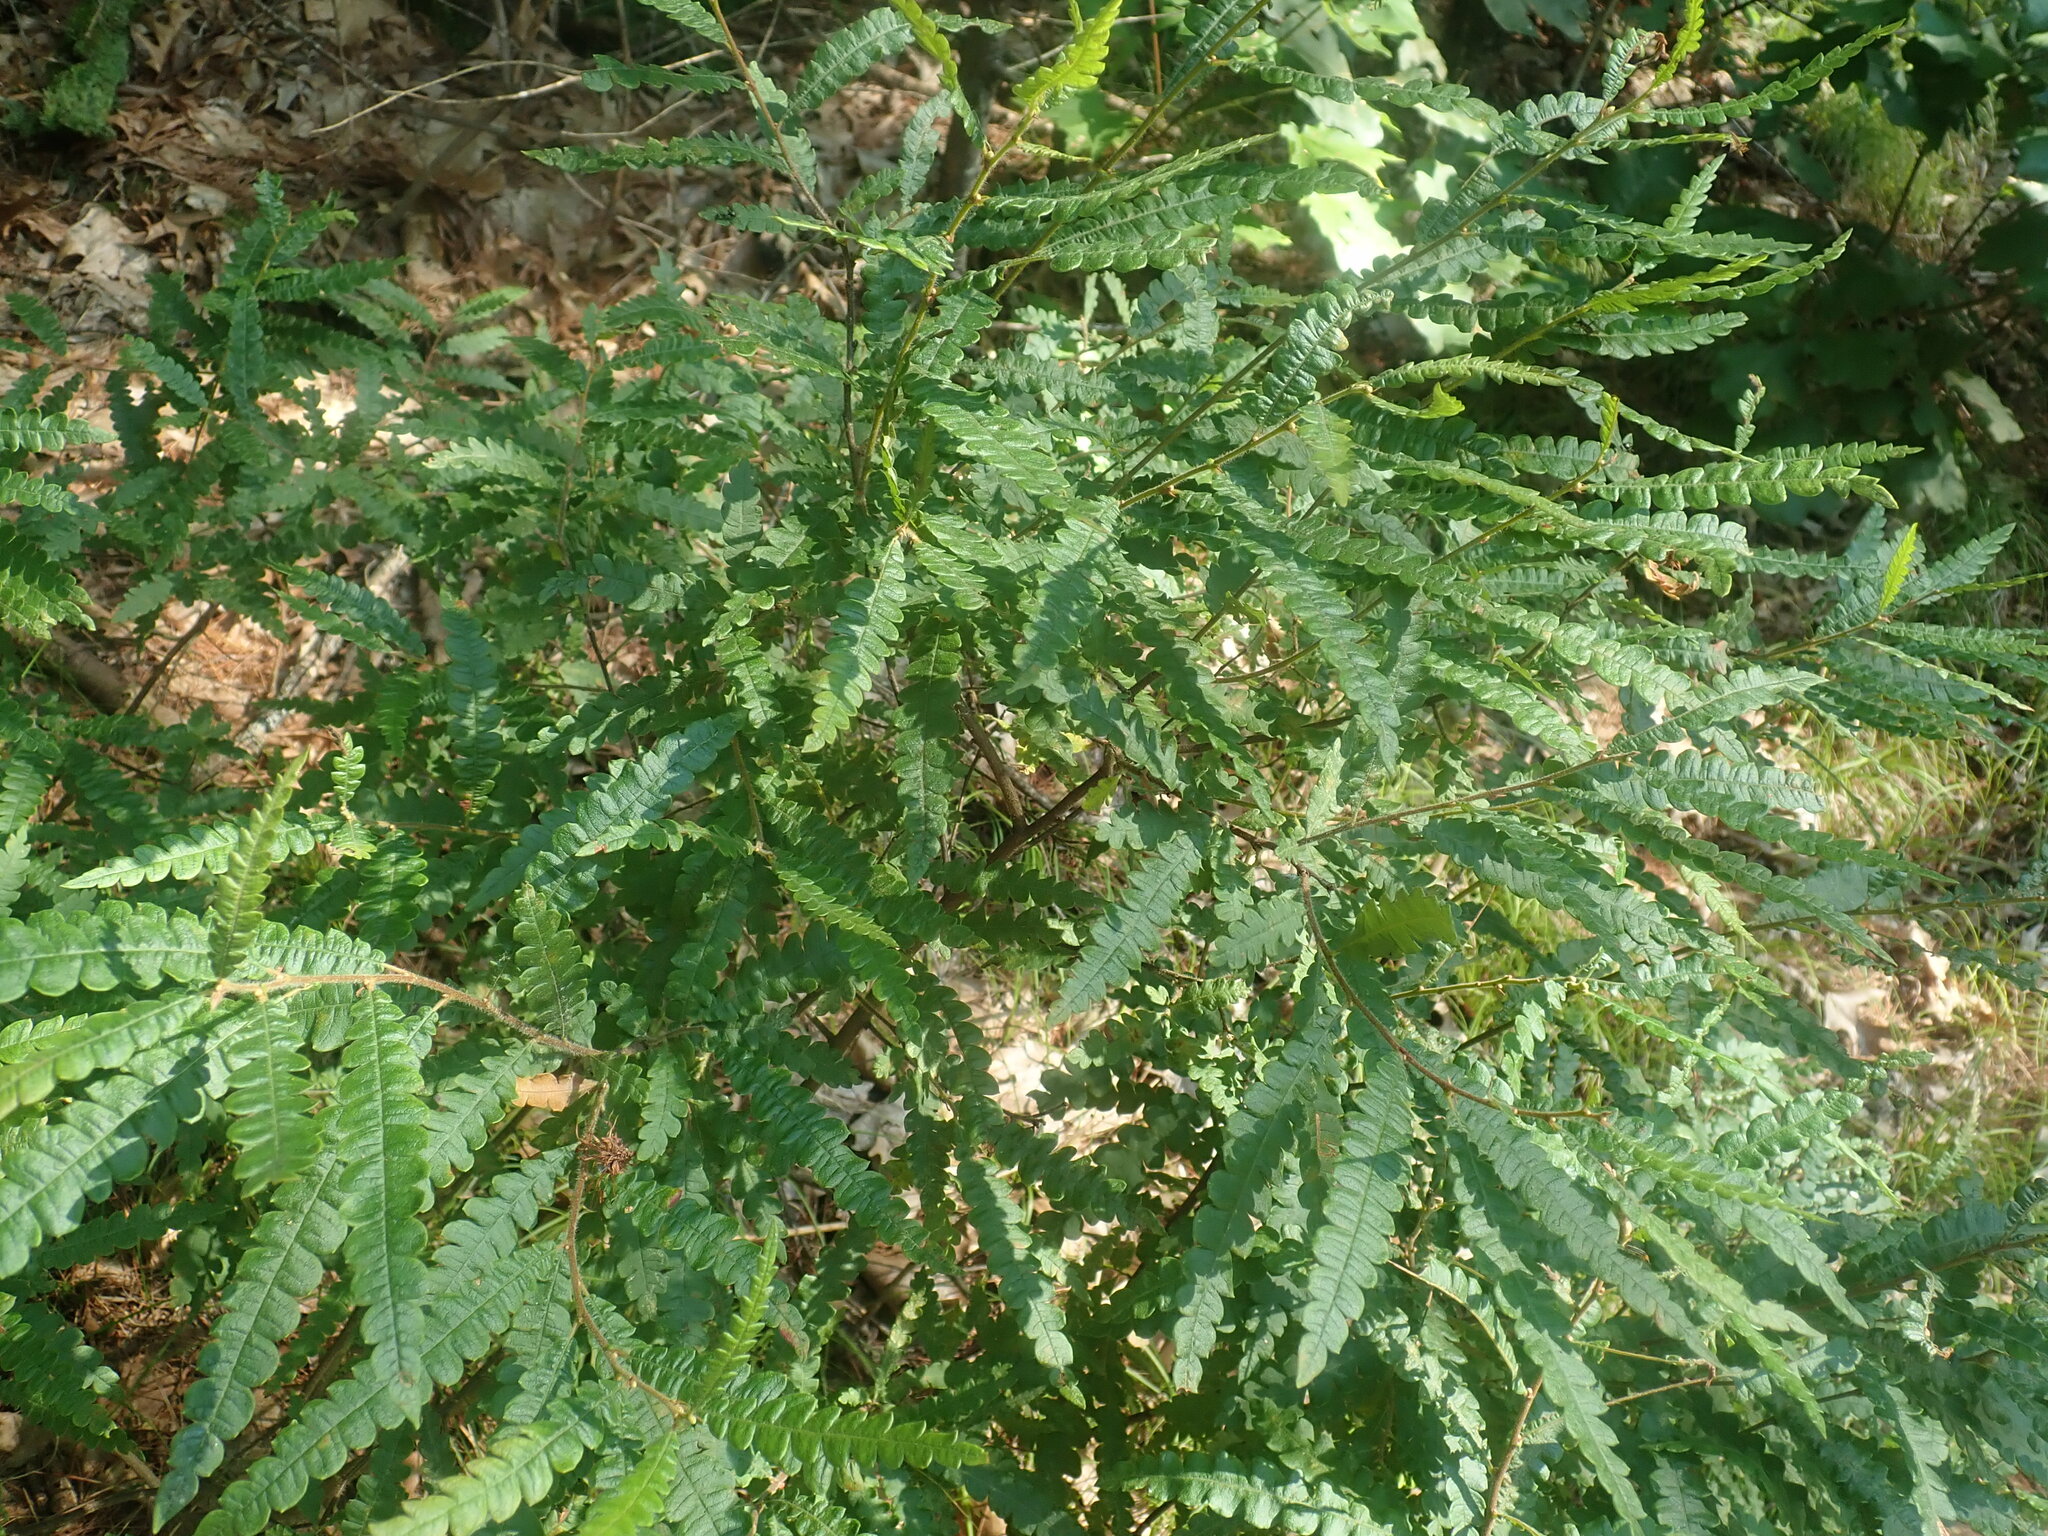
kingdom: Plantae
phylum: Tracheophyta
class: Magnoliopsida
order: Fagales
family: Myricaceae
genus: Comptonia
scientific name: Comptonia peregrina
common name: Sweet-fern
